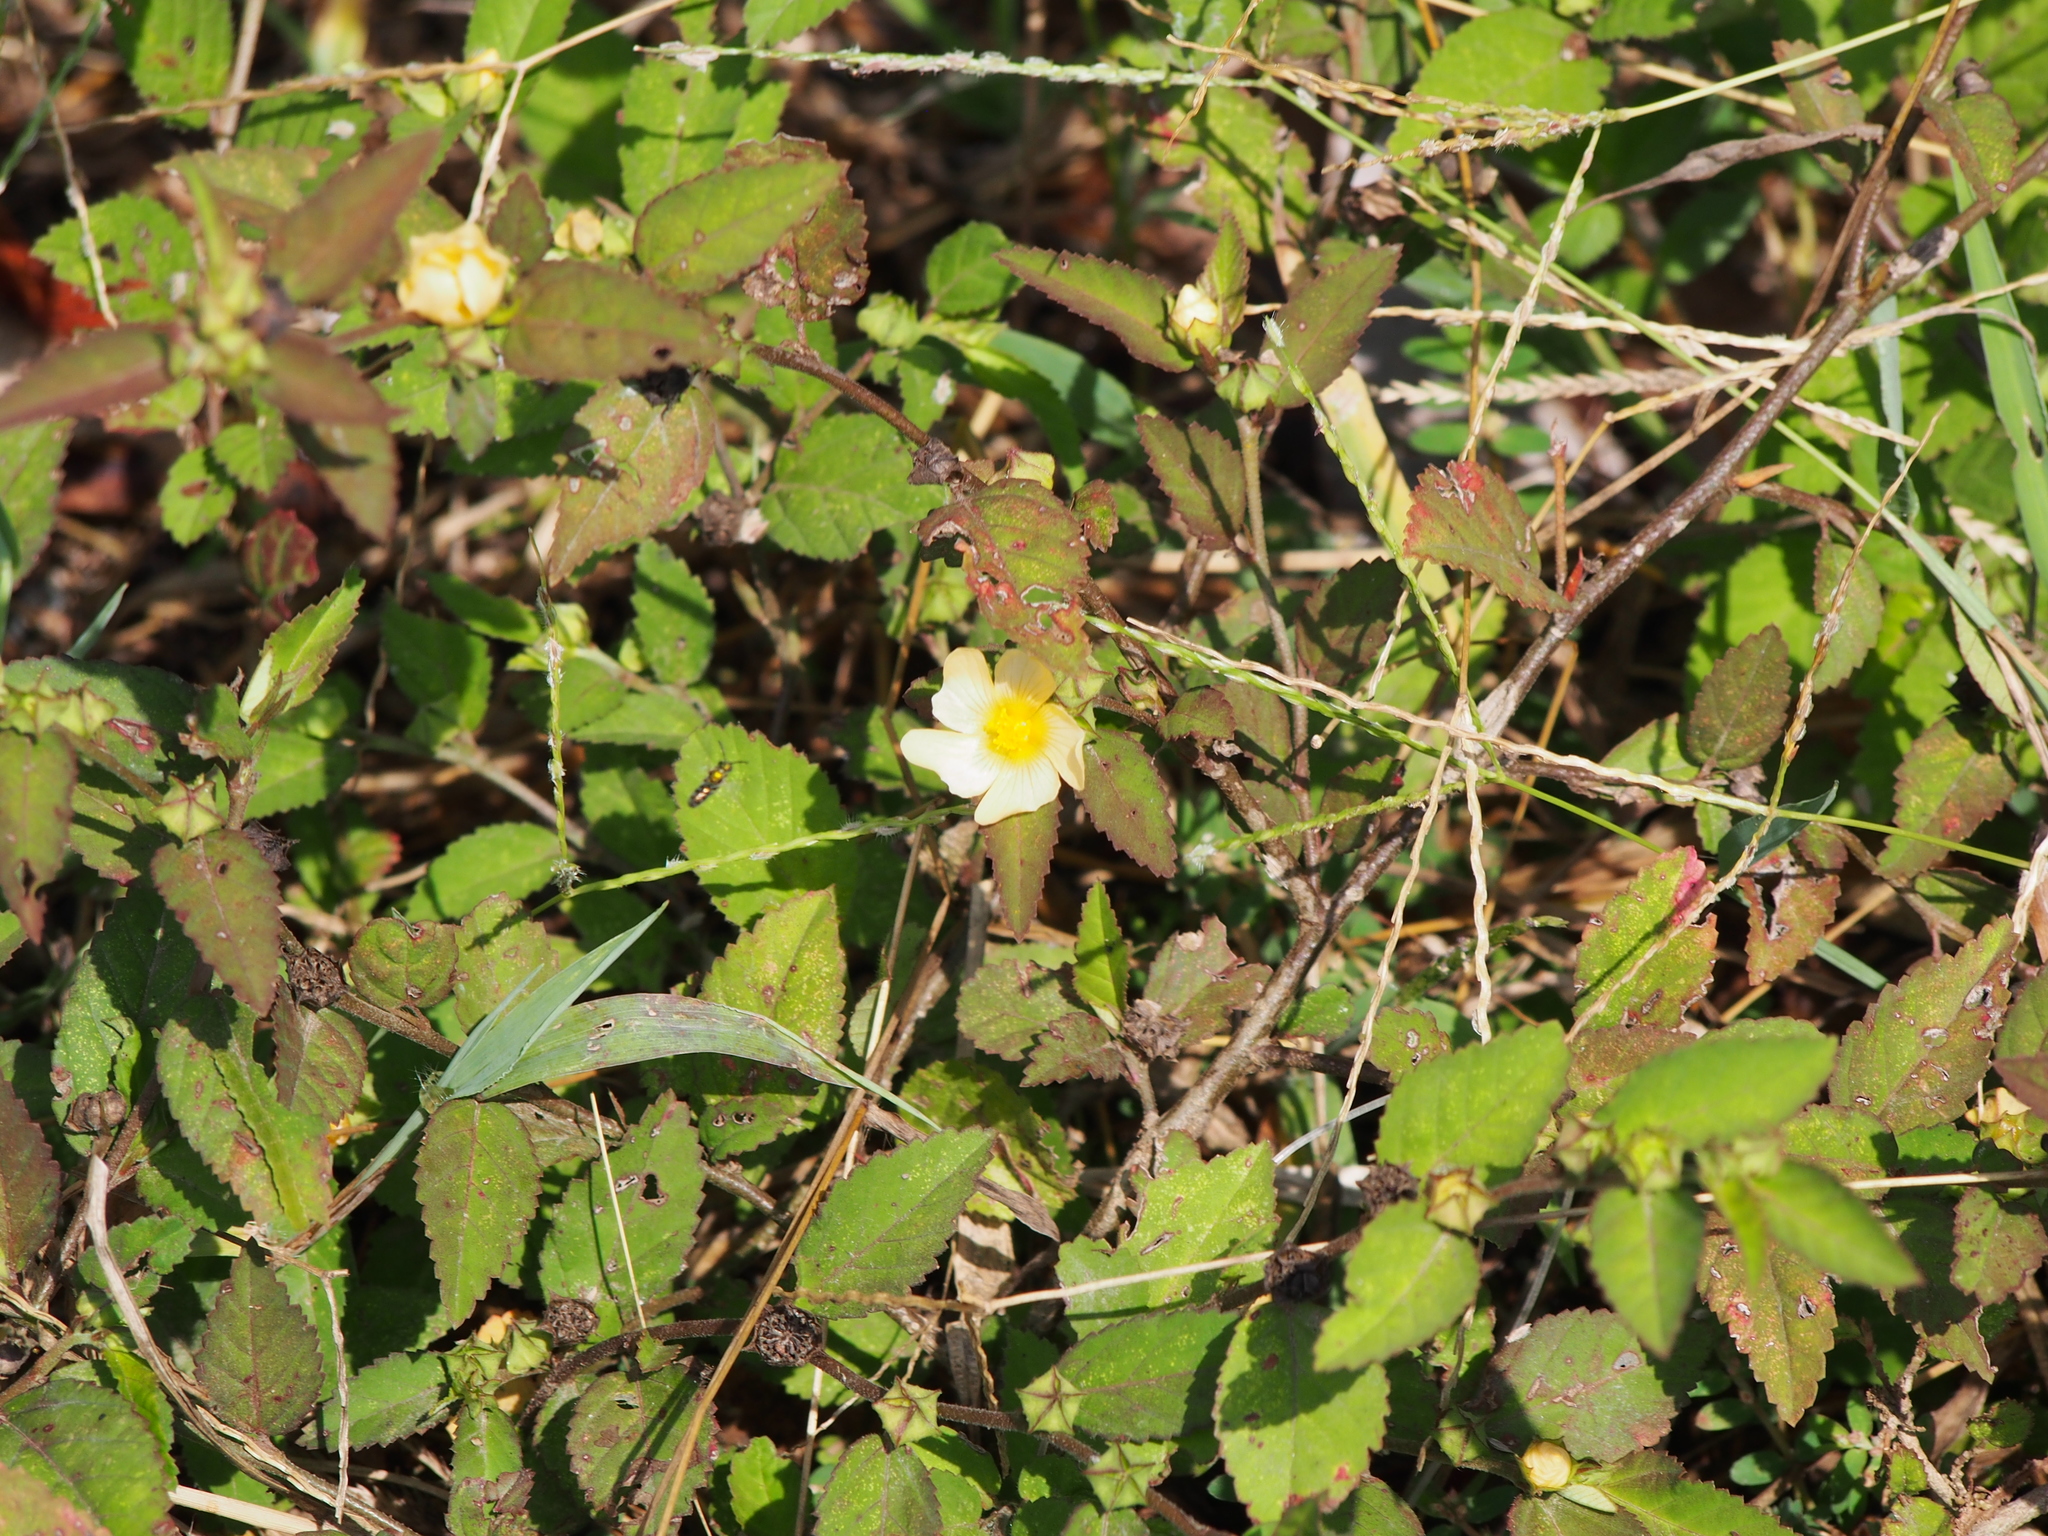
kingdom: Plantae
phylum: Tracheophyta
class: Magnoliopsida
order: Malvales
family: Malvaceae
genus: Sida
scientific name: Sida rhombifolia
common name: Queensland-hemp
